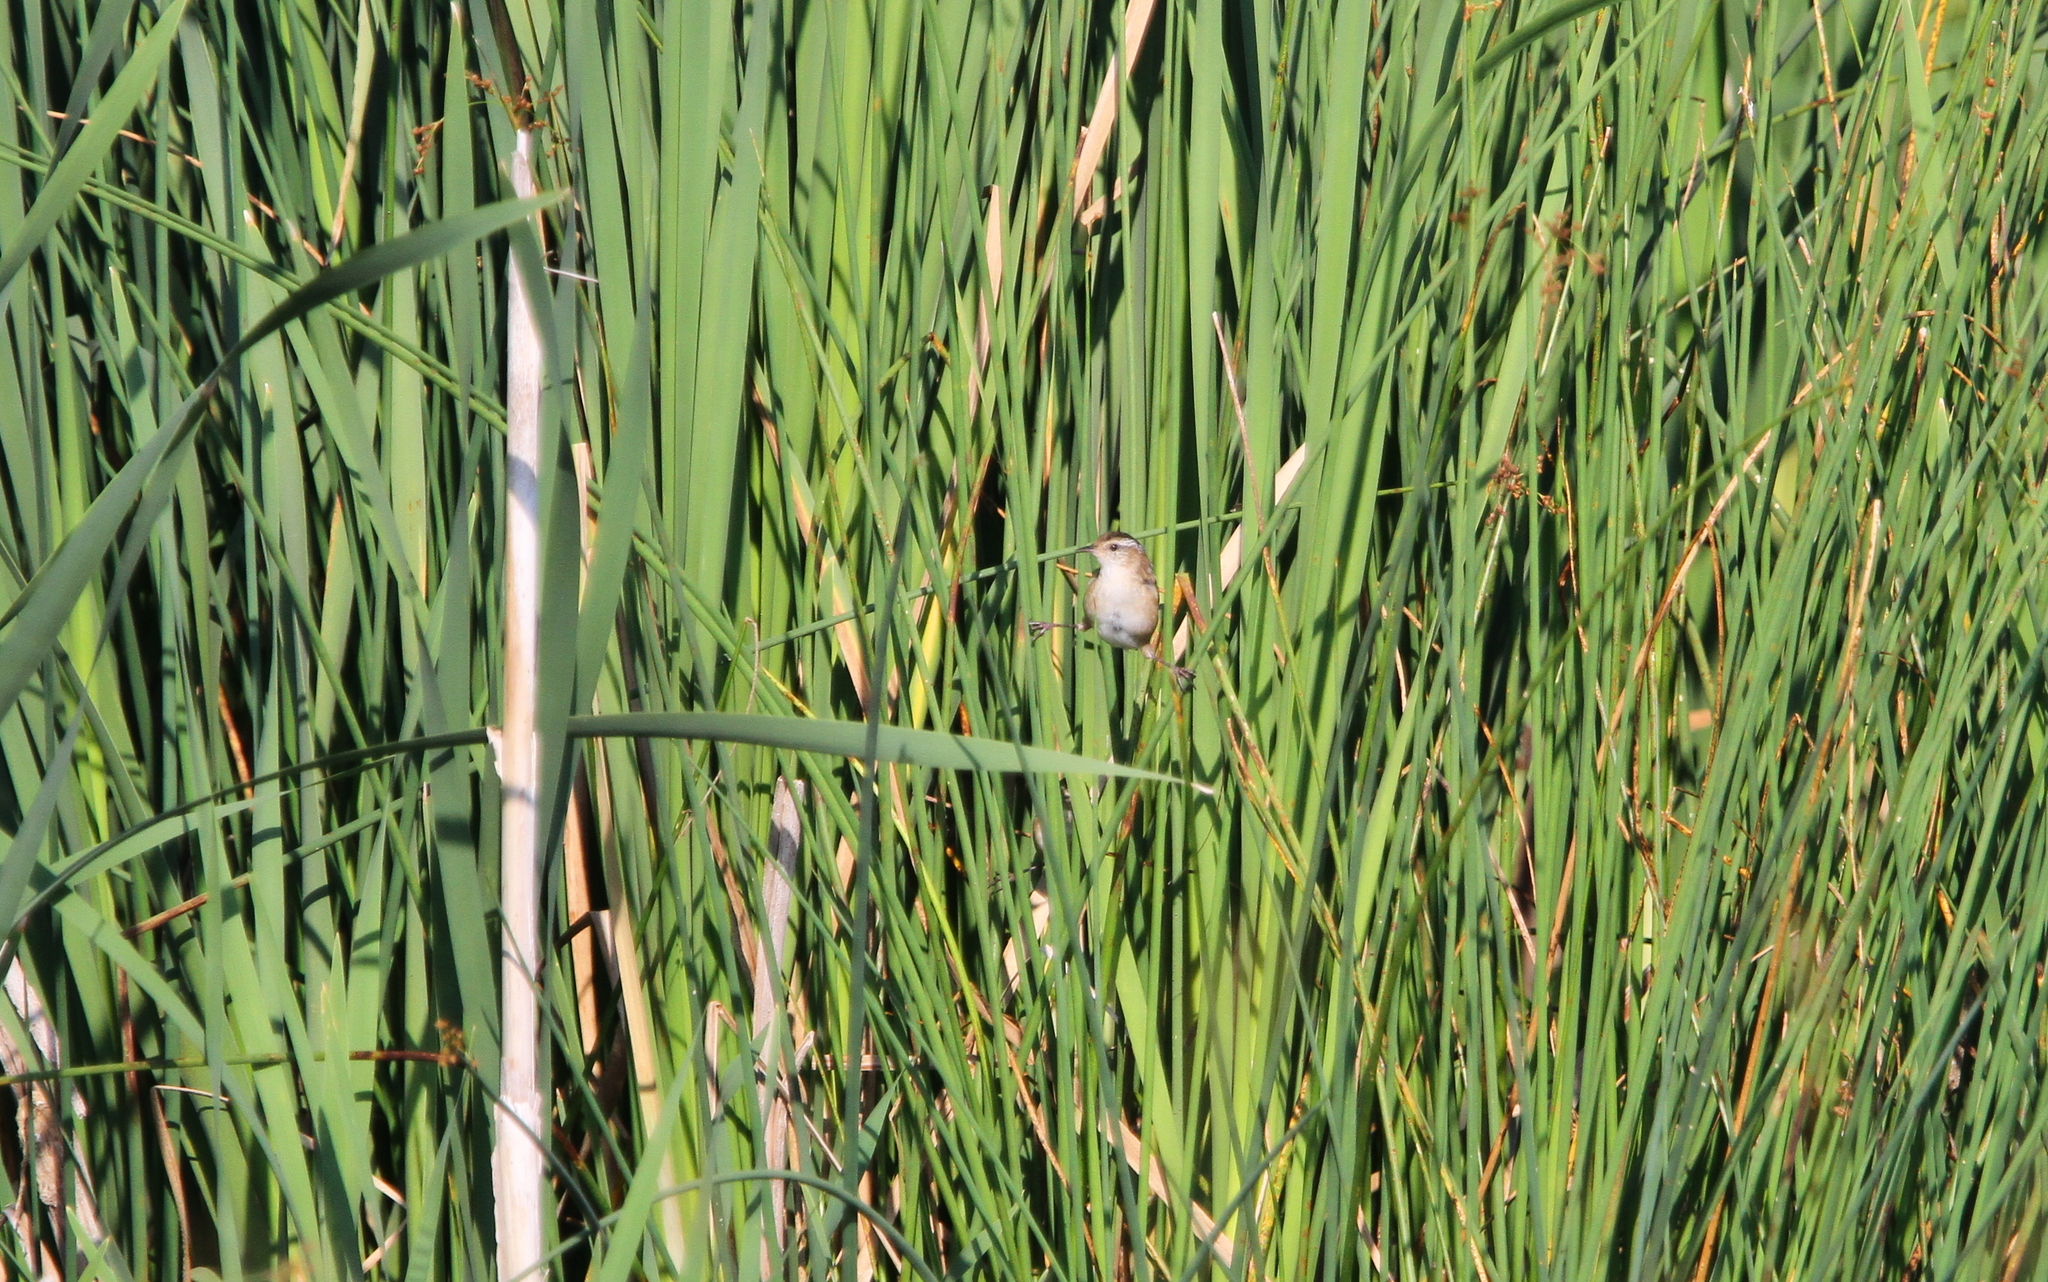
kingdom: Animalia
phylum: Chordata
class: Aves
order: Passeriformes
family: Troglodytidae
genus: Cistothorus
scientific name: Cistothorus palustris
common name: Marsh wren
